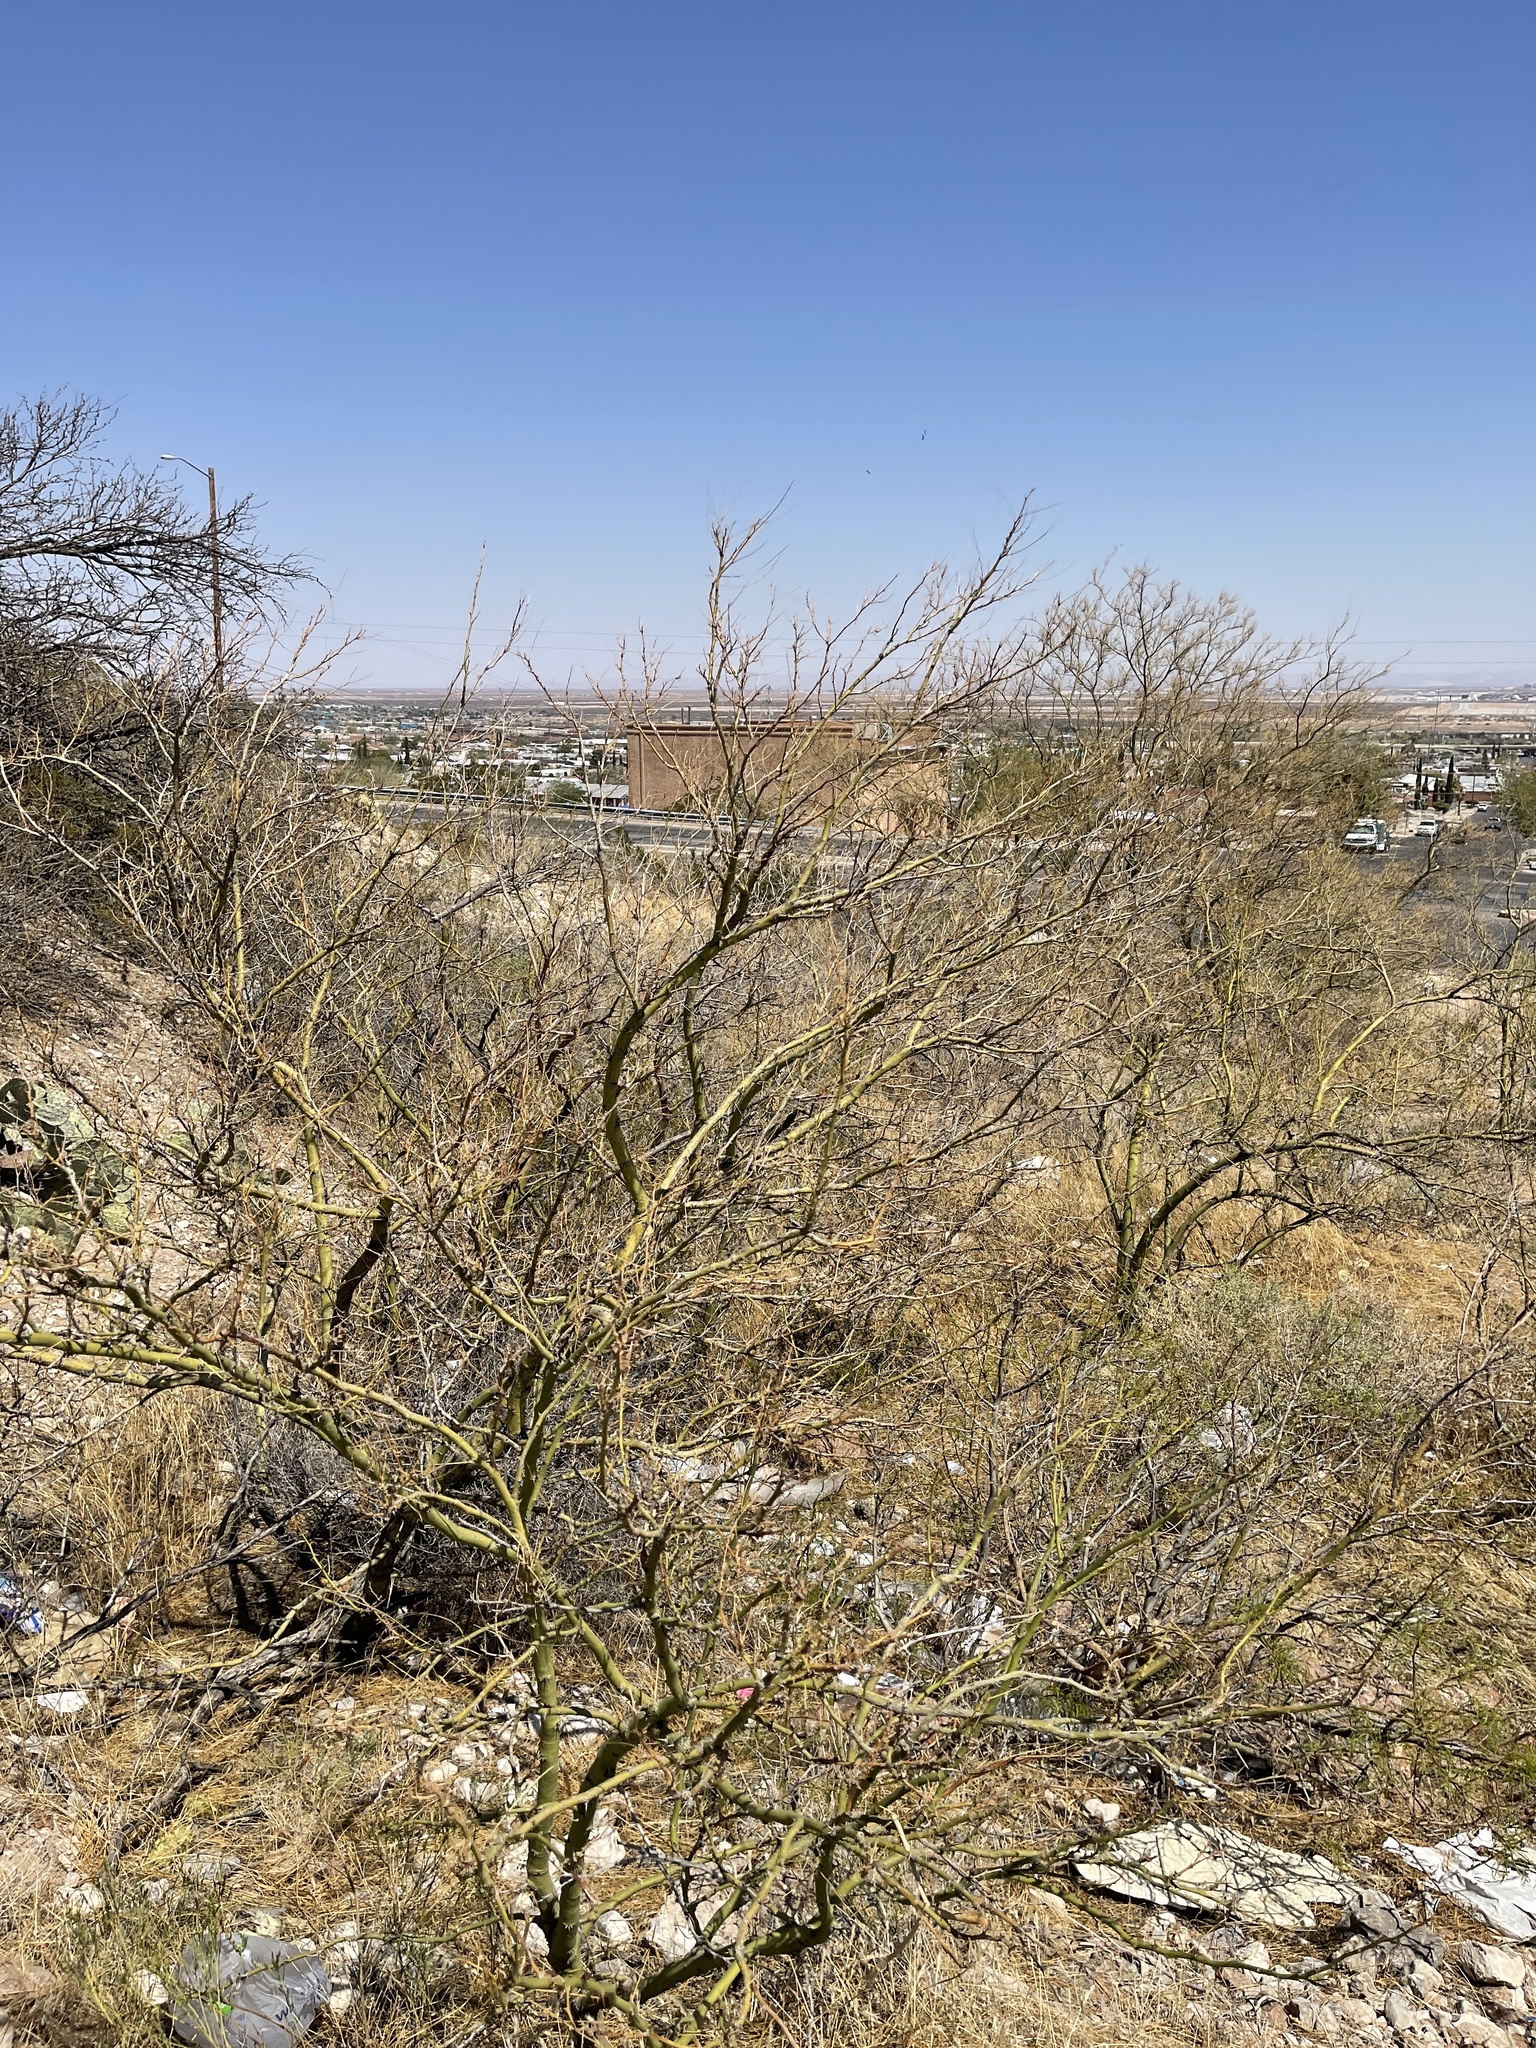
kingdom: Plantae
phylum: Tracheophyta
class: Magnoliopsida
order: Fabales
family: Fabaceae
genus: Parkinsonia
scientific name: Parkinsonia aculeata
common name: Jerusalem thorn
